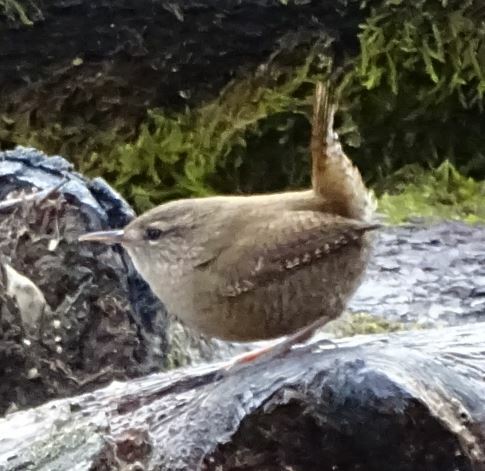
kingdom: Animalia
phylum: Chordata
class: Aves
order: Passeriformes
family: Troglodytidae
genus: Troglodytes
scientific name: Troglodytes troglodytes
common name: Eurasian wren
